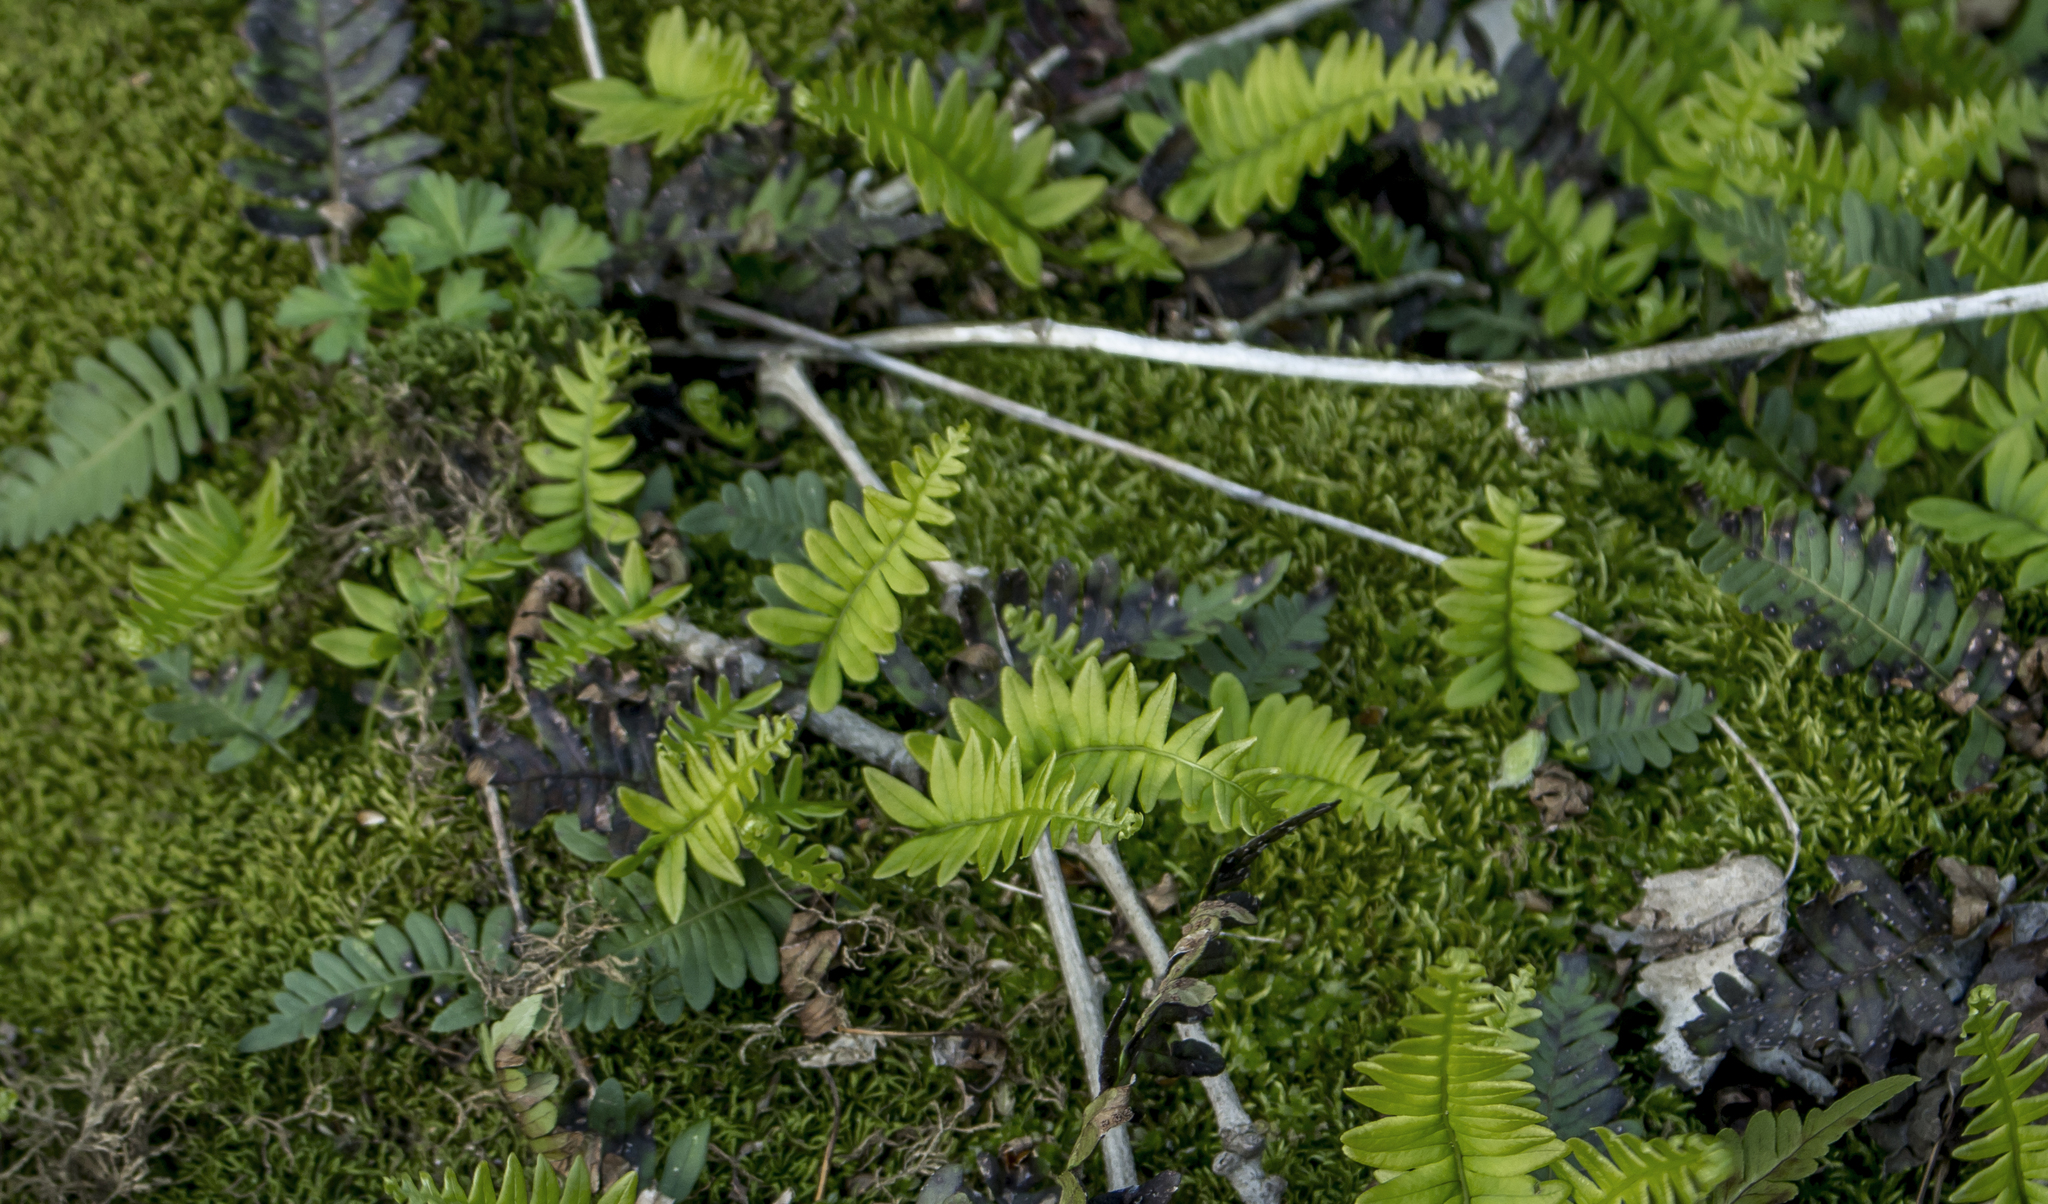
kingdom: Plantae
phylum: Tracheophyta
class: Polypodiopsida
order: Polypodiales
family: Polypodiaceae
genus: Polypodium
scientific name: Polypodium virginianum
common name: American wall fern
